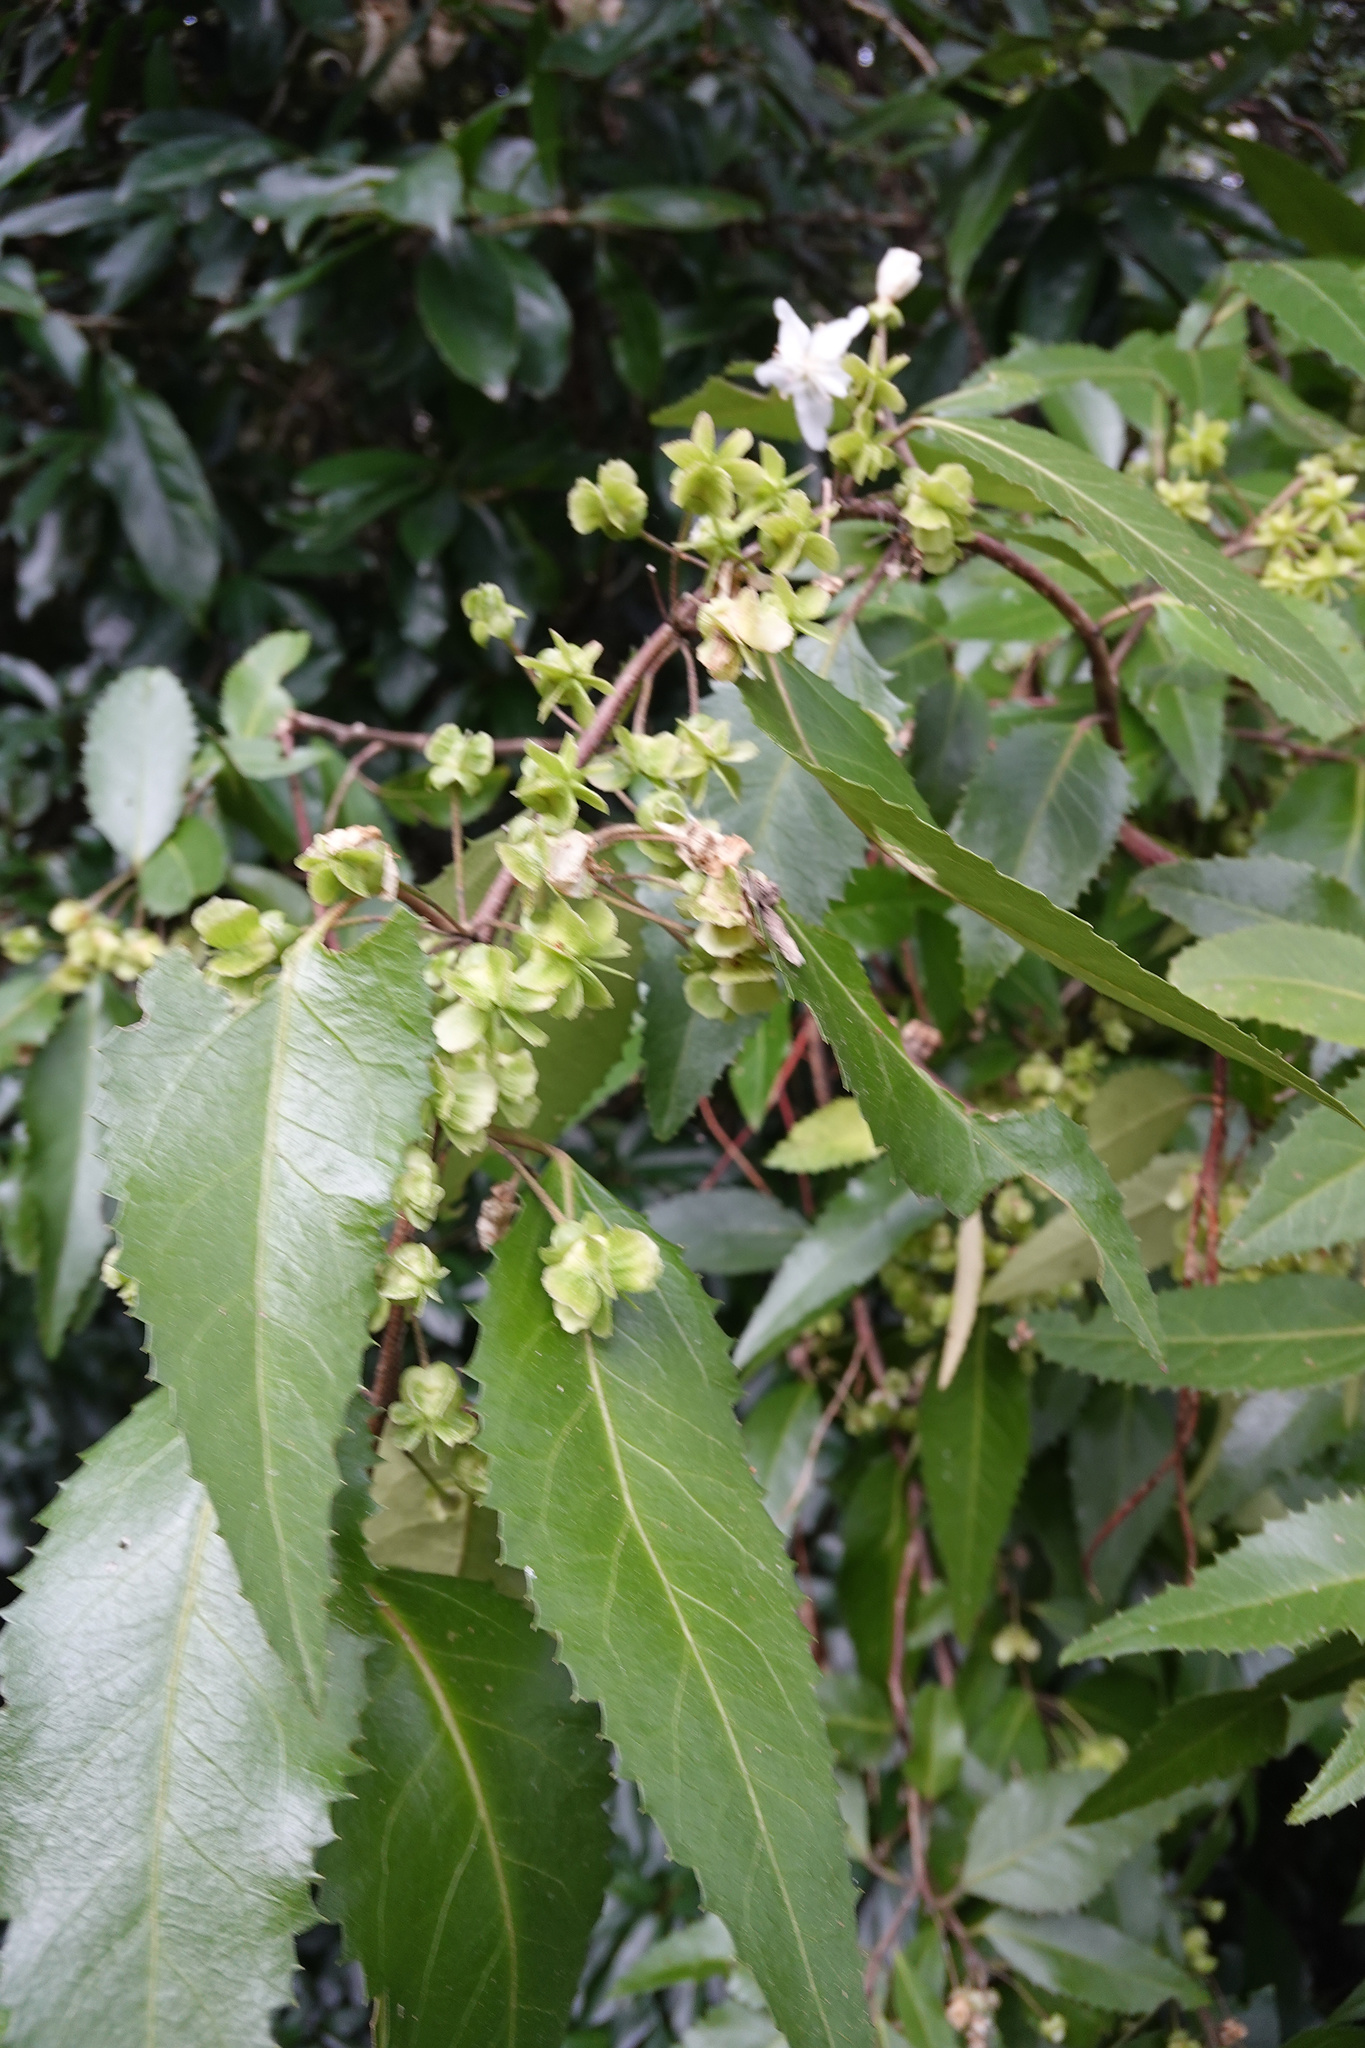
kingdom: Plantae
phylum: Tracheophyta
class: Magnoliopsida
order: Malvales
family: Malvaceae
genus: Hoheria
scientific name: Hoheria angustifolia
